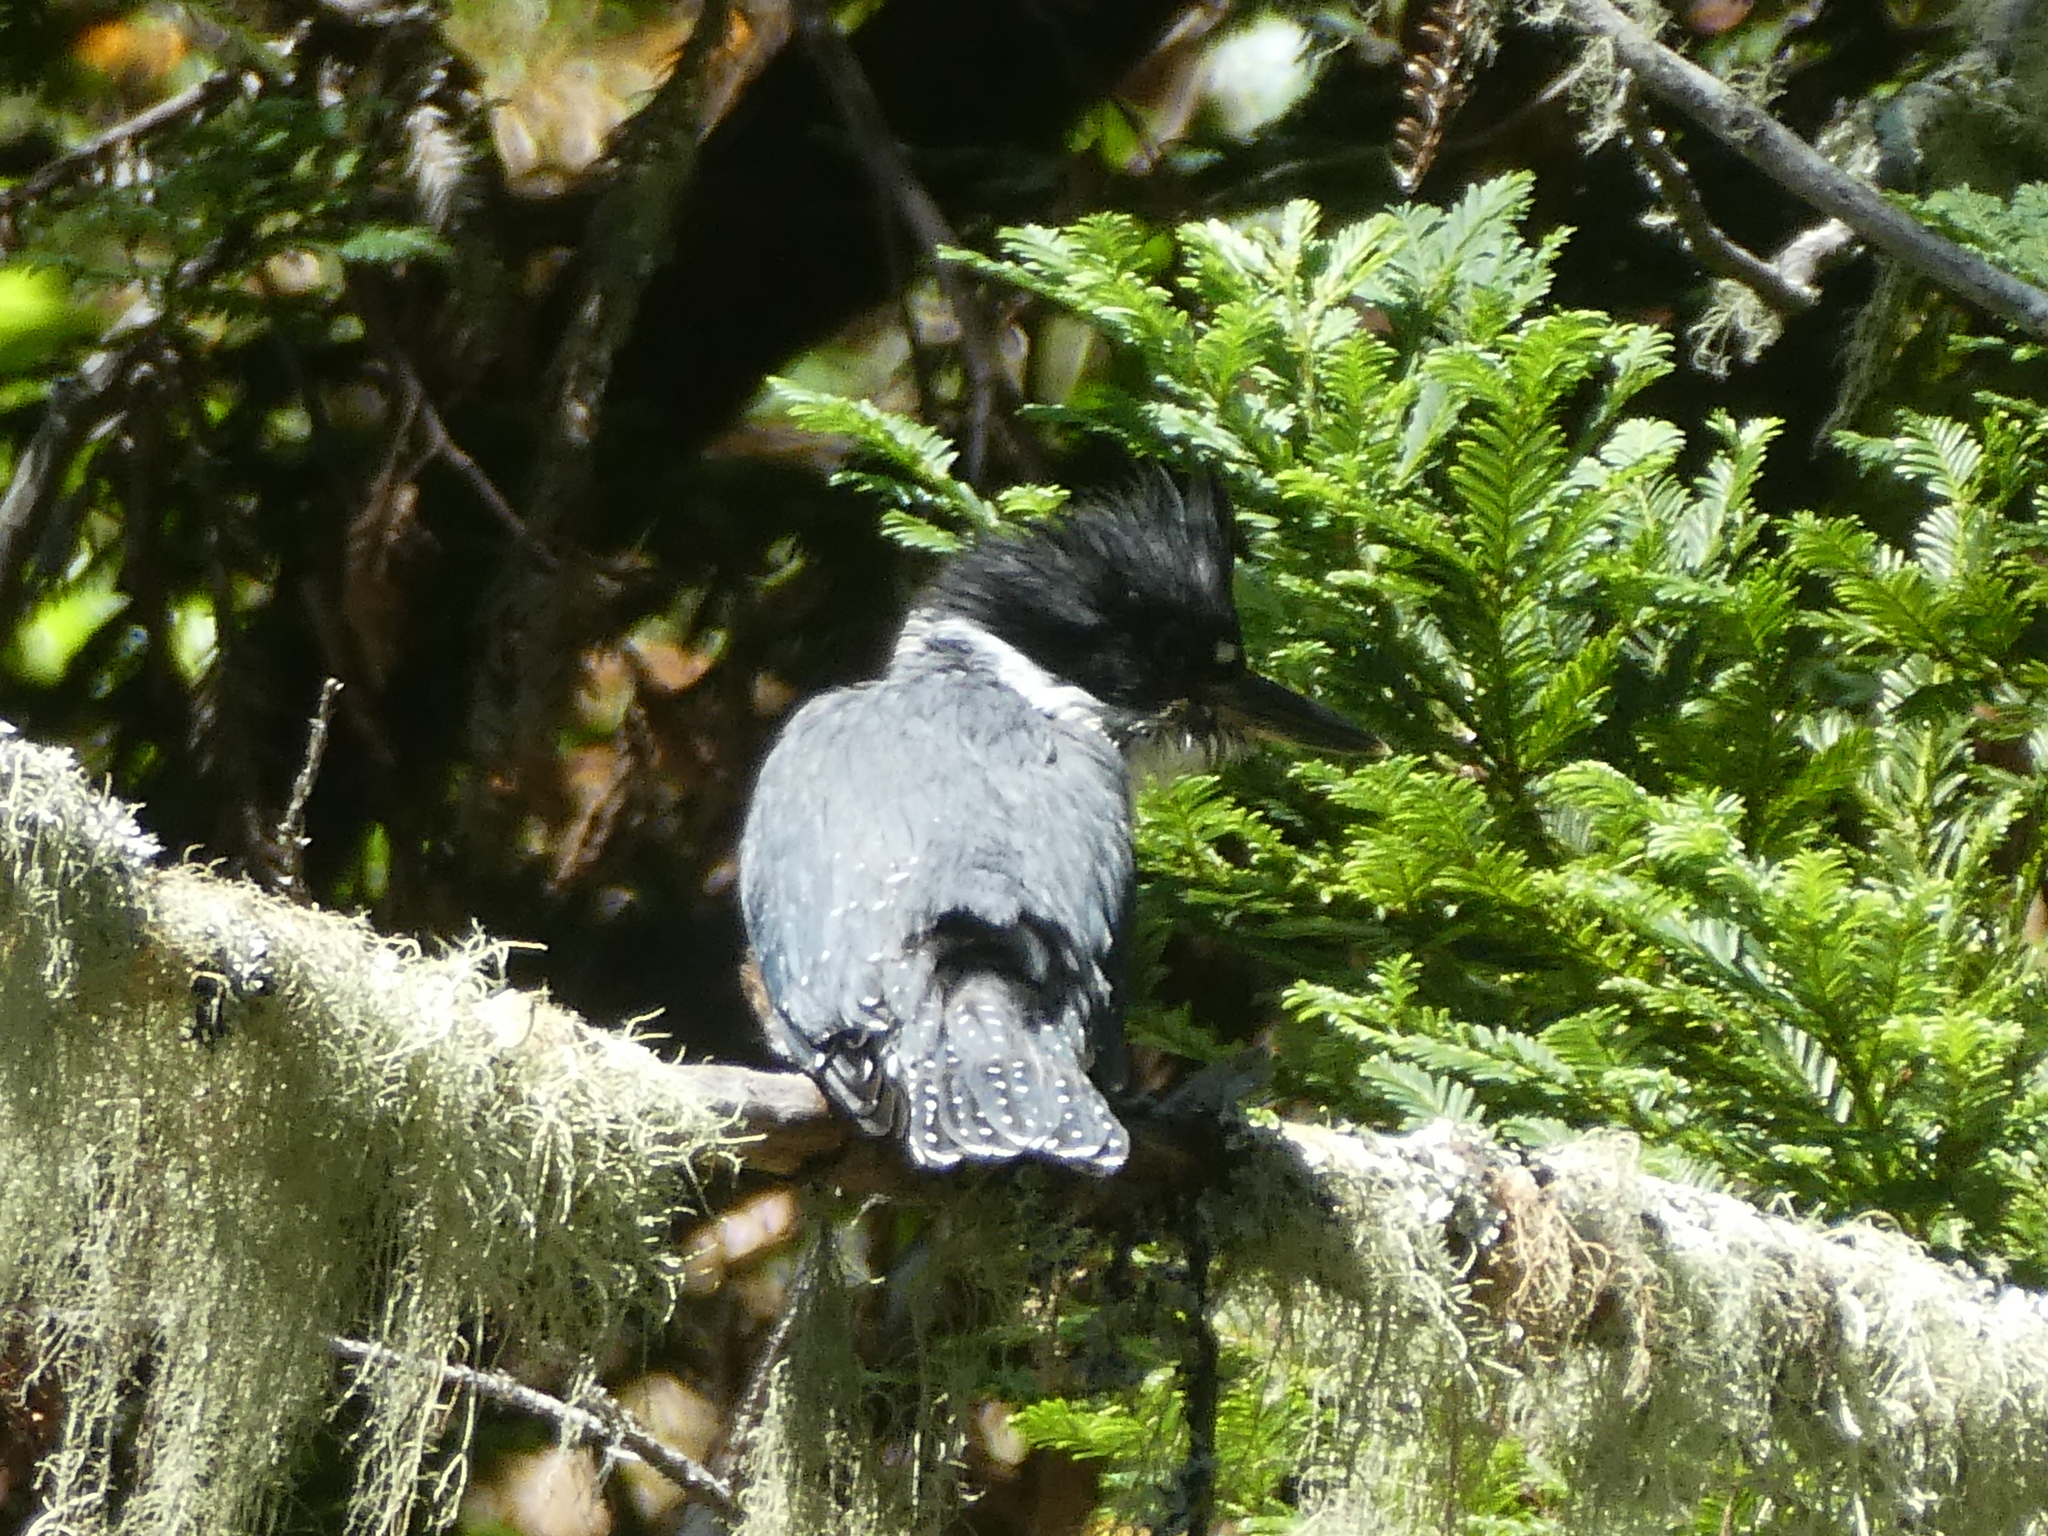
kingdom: Animalia
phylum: Chordata
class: Aves
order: Coraciiformes
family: Alcedinidae
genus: Megaceryle
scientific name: Megaceryle alcyon
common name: Belted kingfisher
